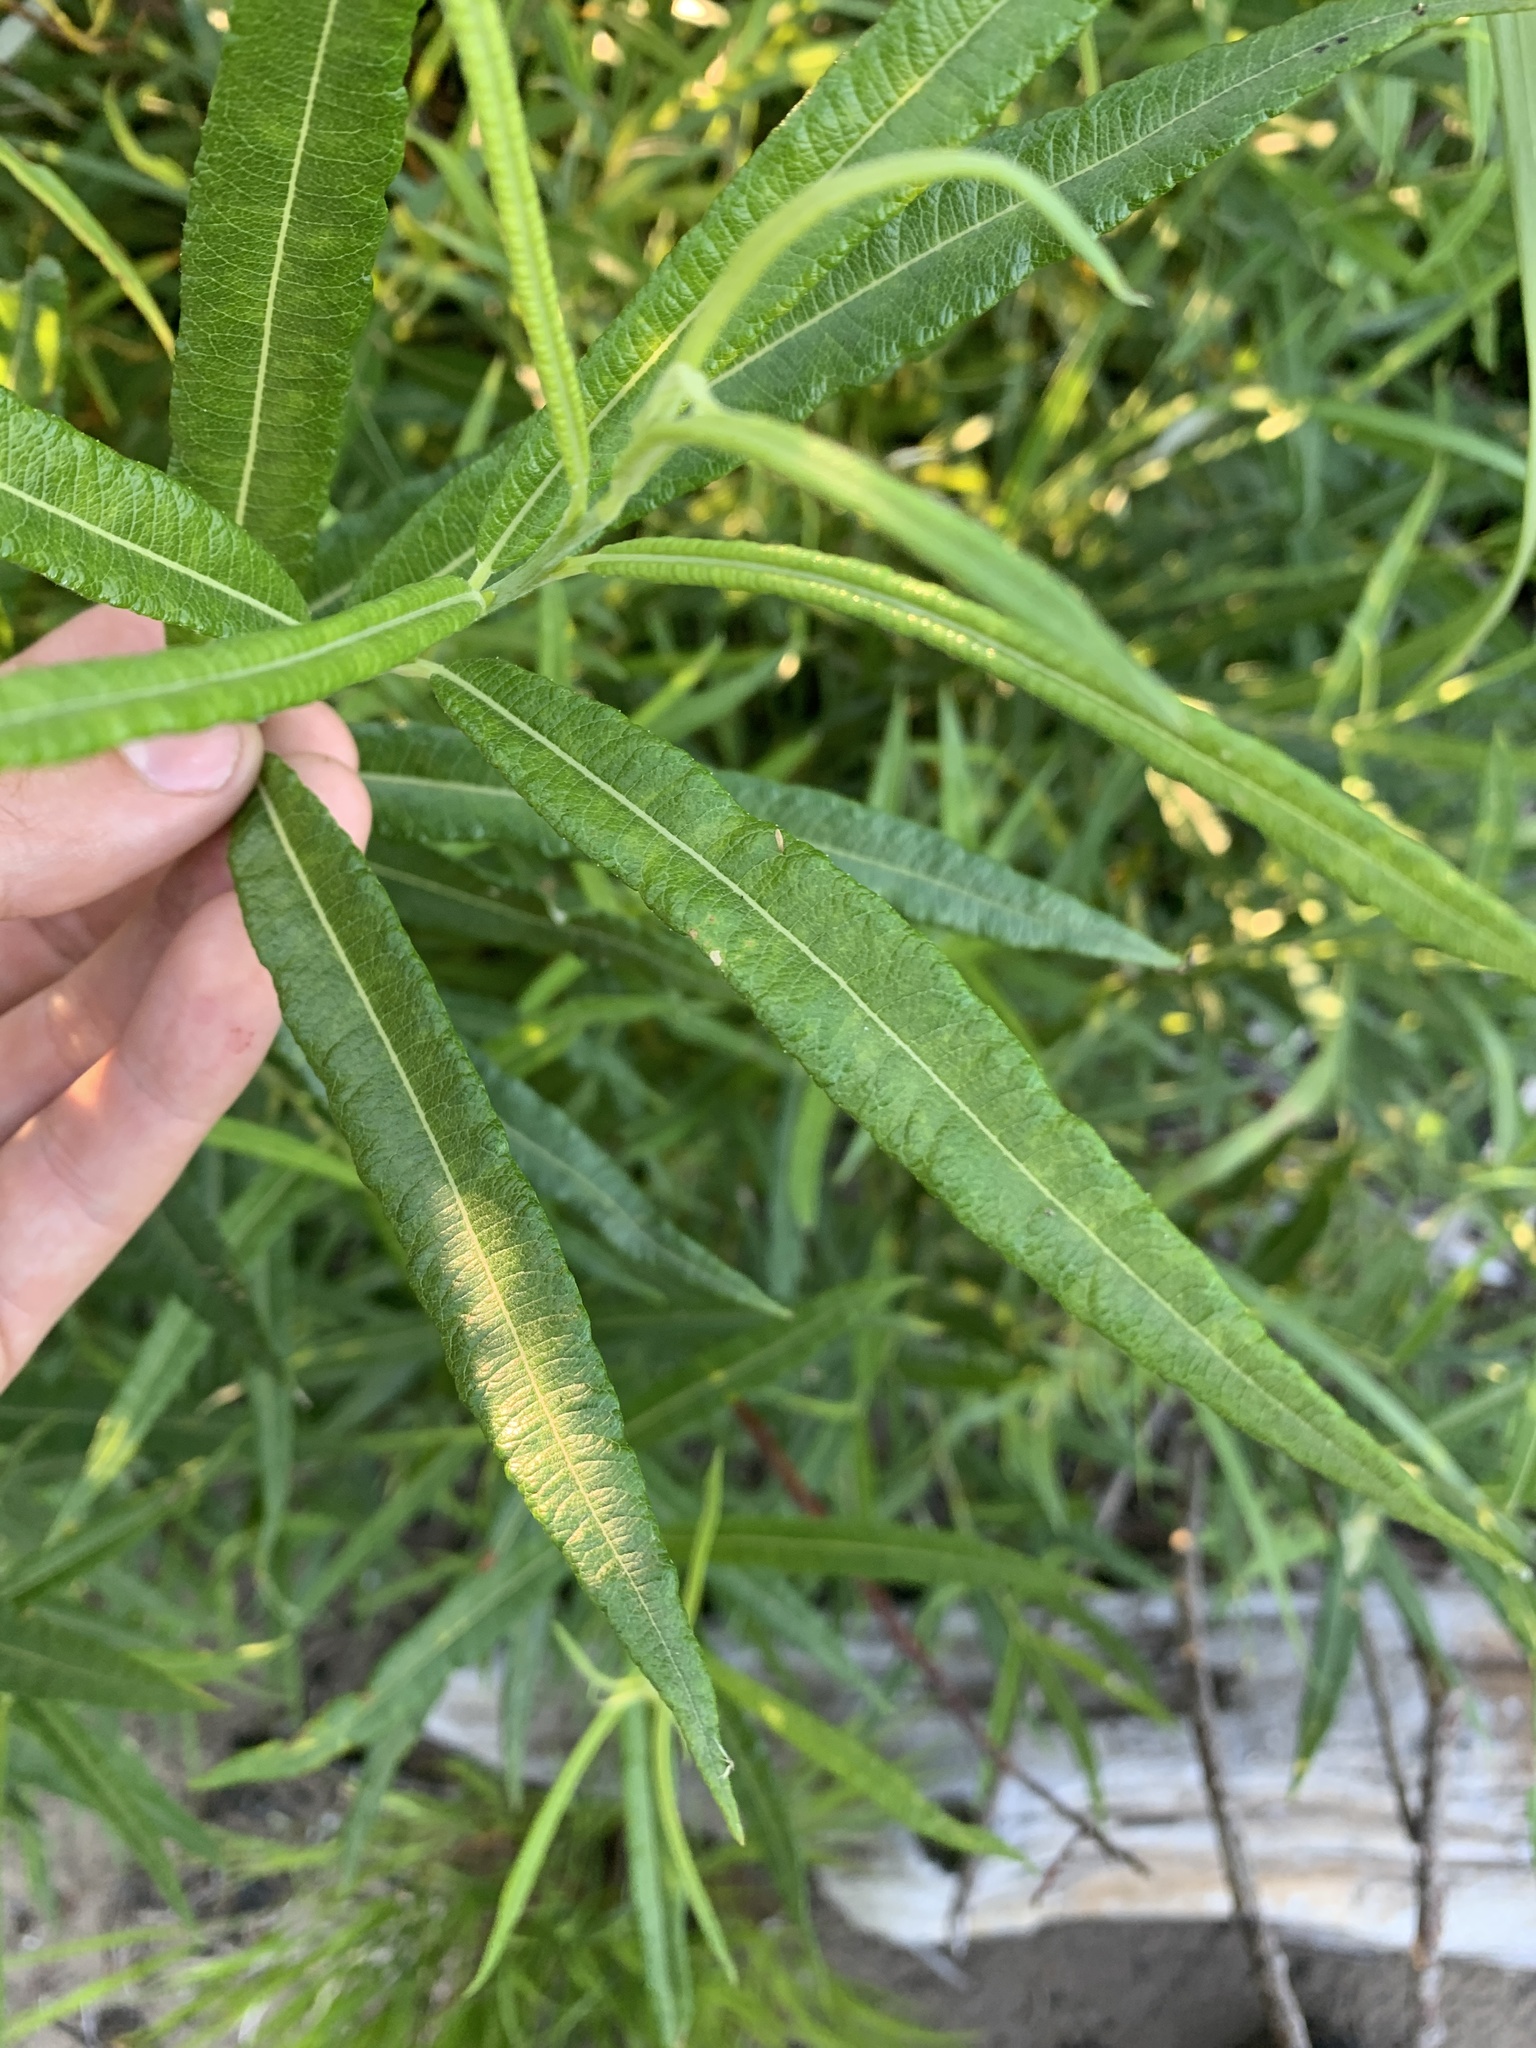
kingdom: Plantae
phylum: Tracheophyta
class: Magnoliopsida
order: Malpighiales
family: Salicaceae
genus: Salix
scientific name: Salix pellita
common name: Satiny willow
